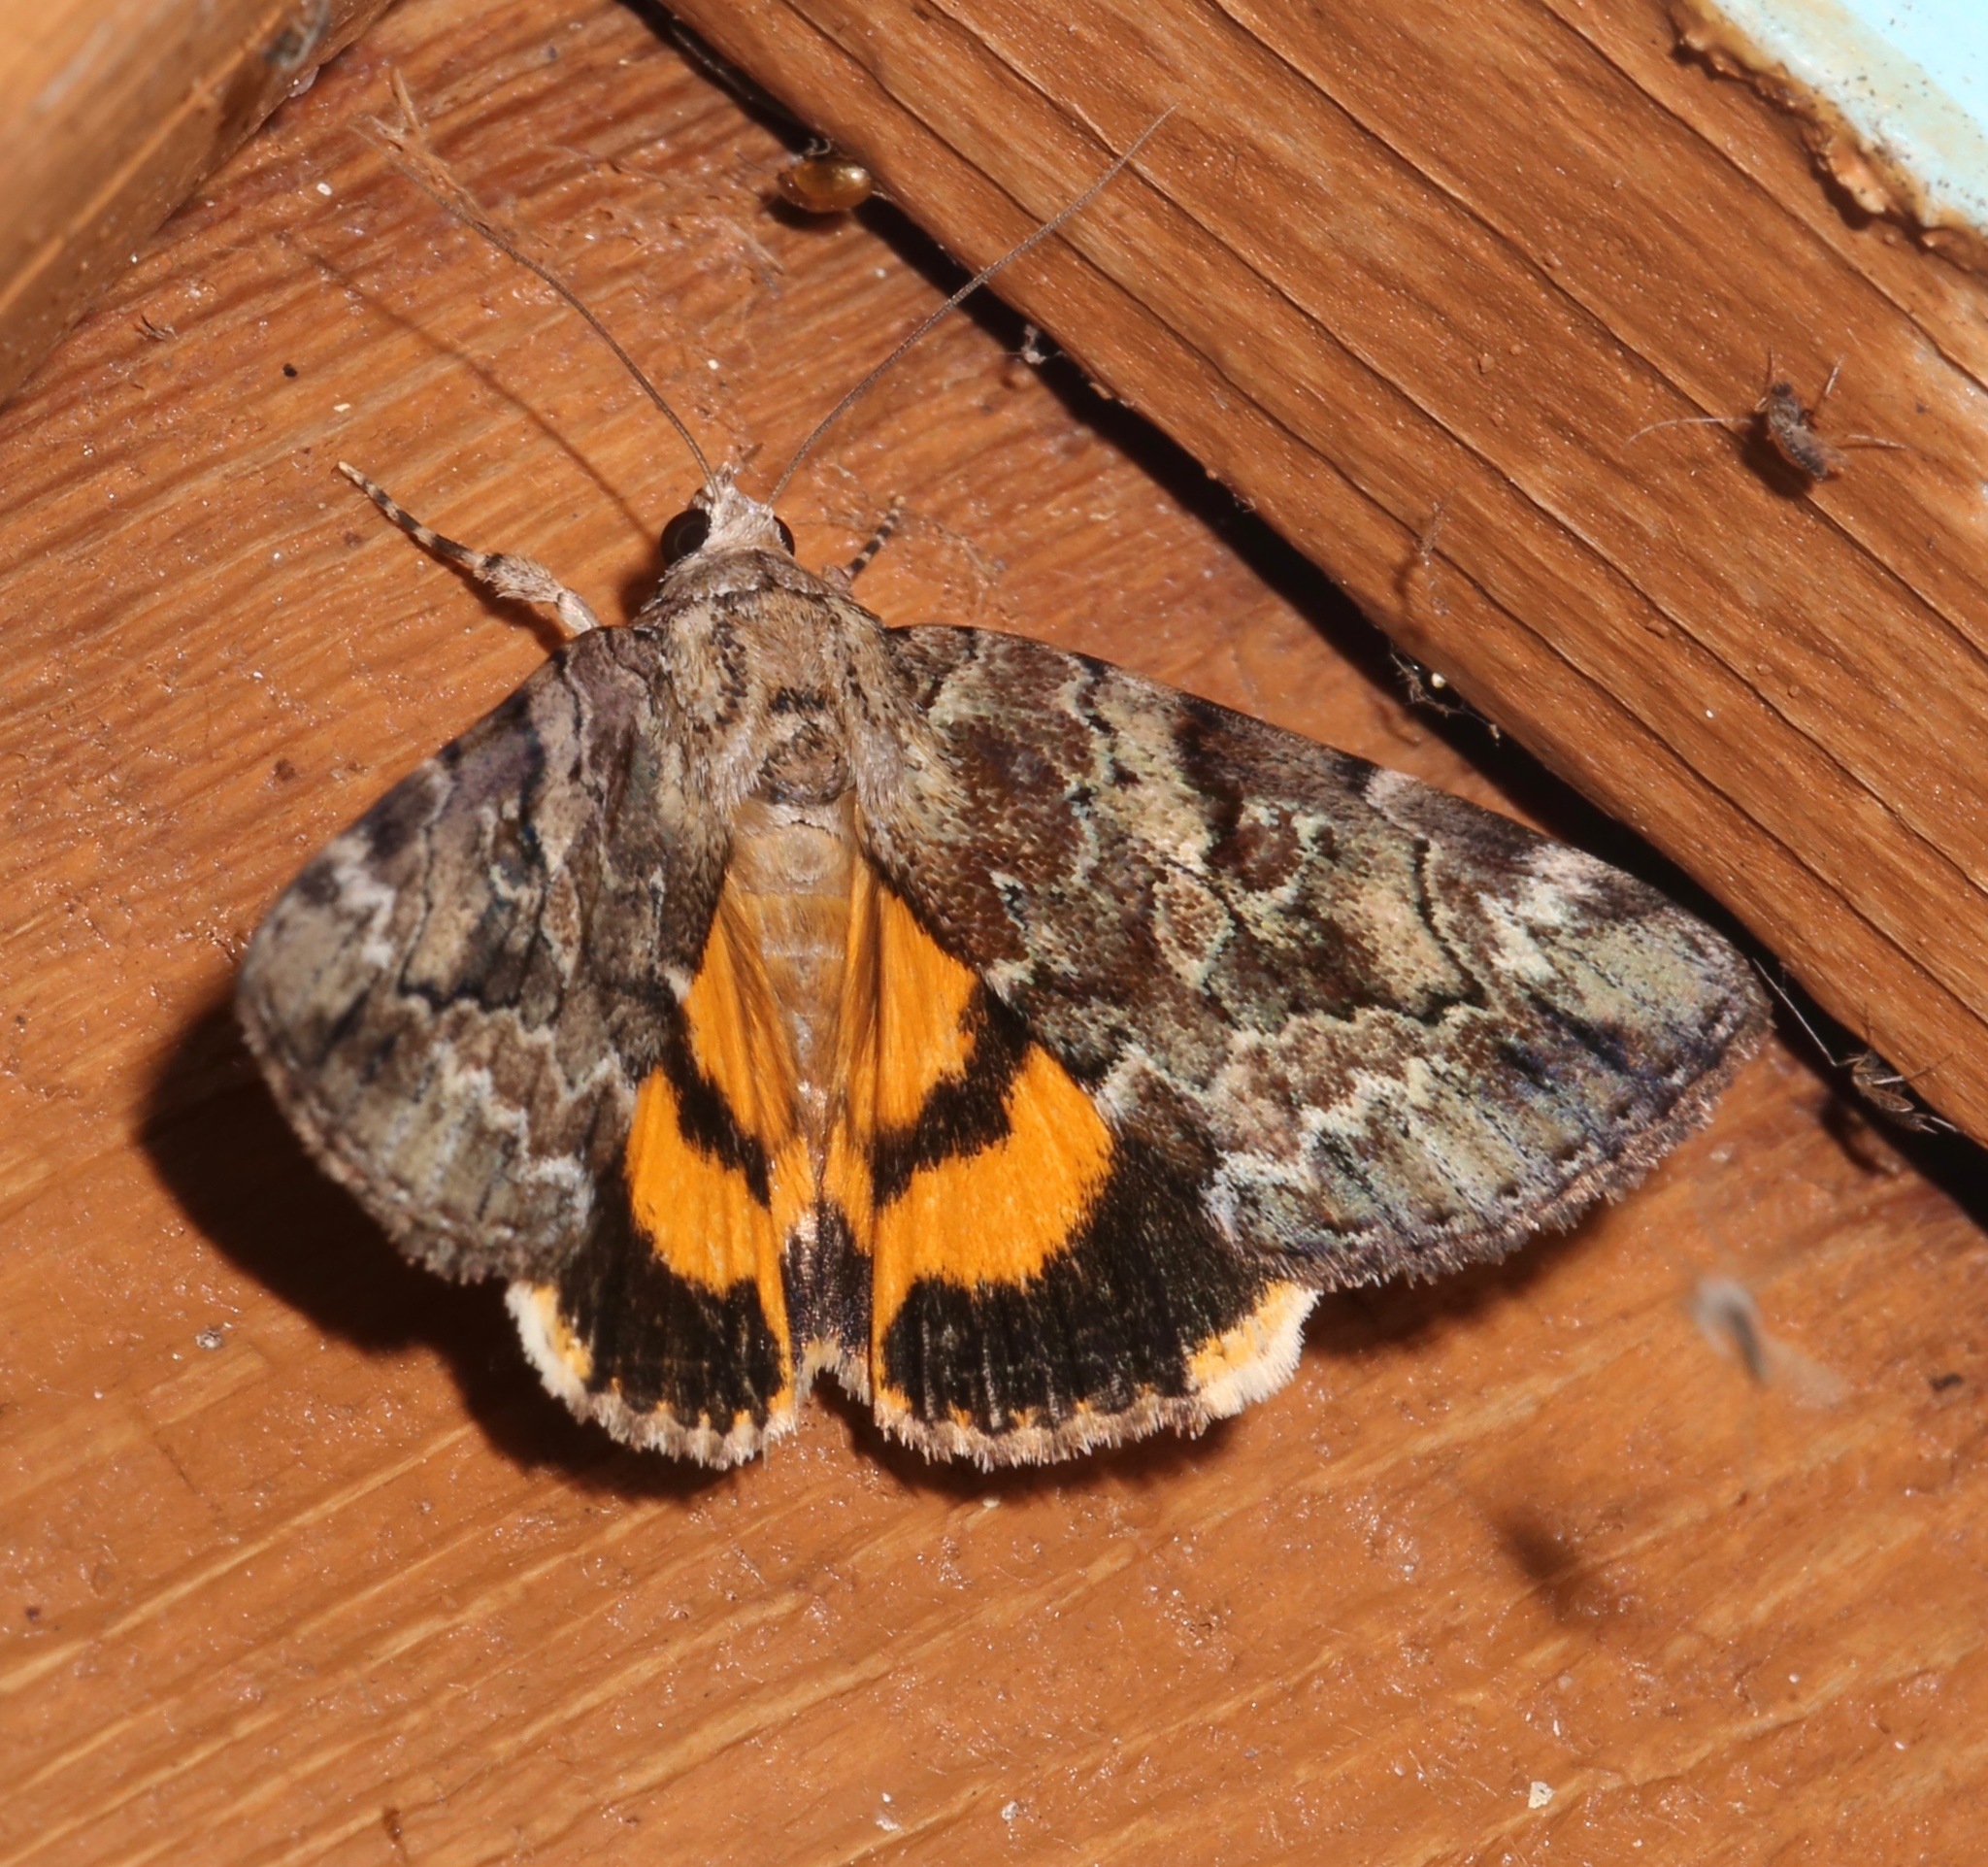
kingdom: Animalia
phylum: Arthropoda
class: Insecta
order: Lepidoptera
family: Erebidae
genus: Catocala
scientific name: Catocala micronympha
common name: Little nymph underwing
